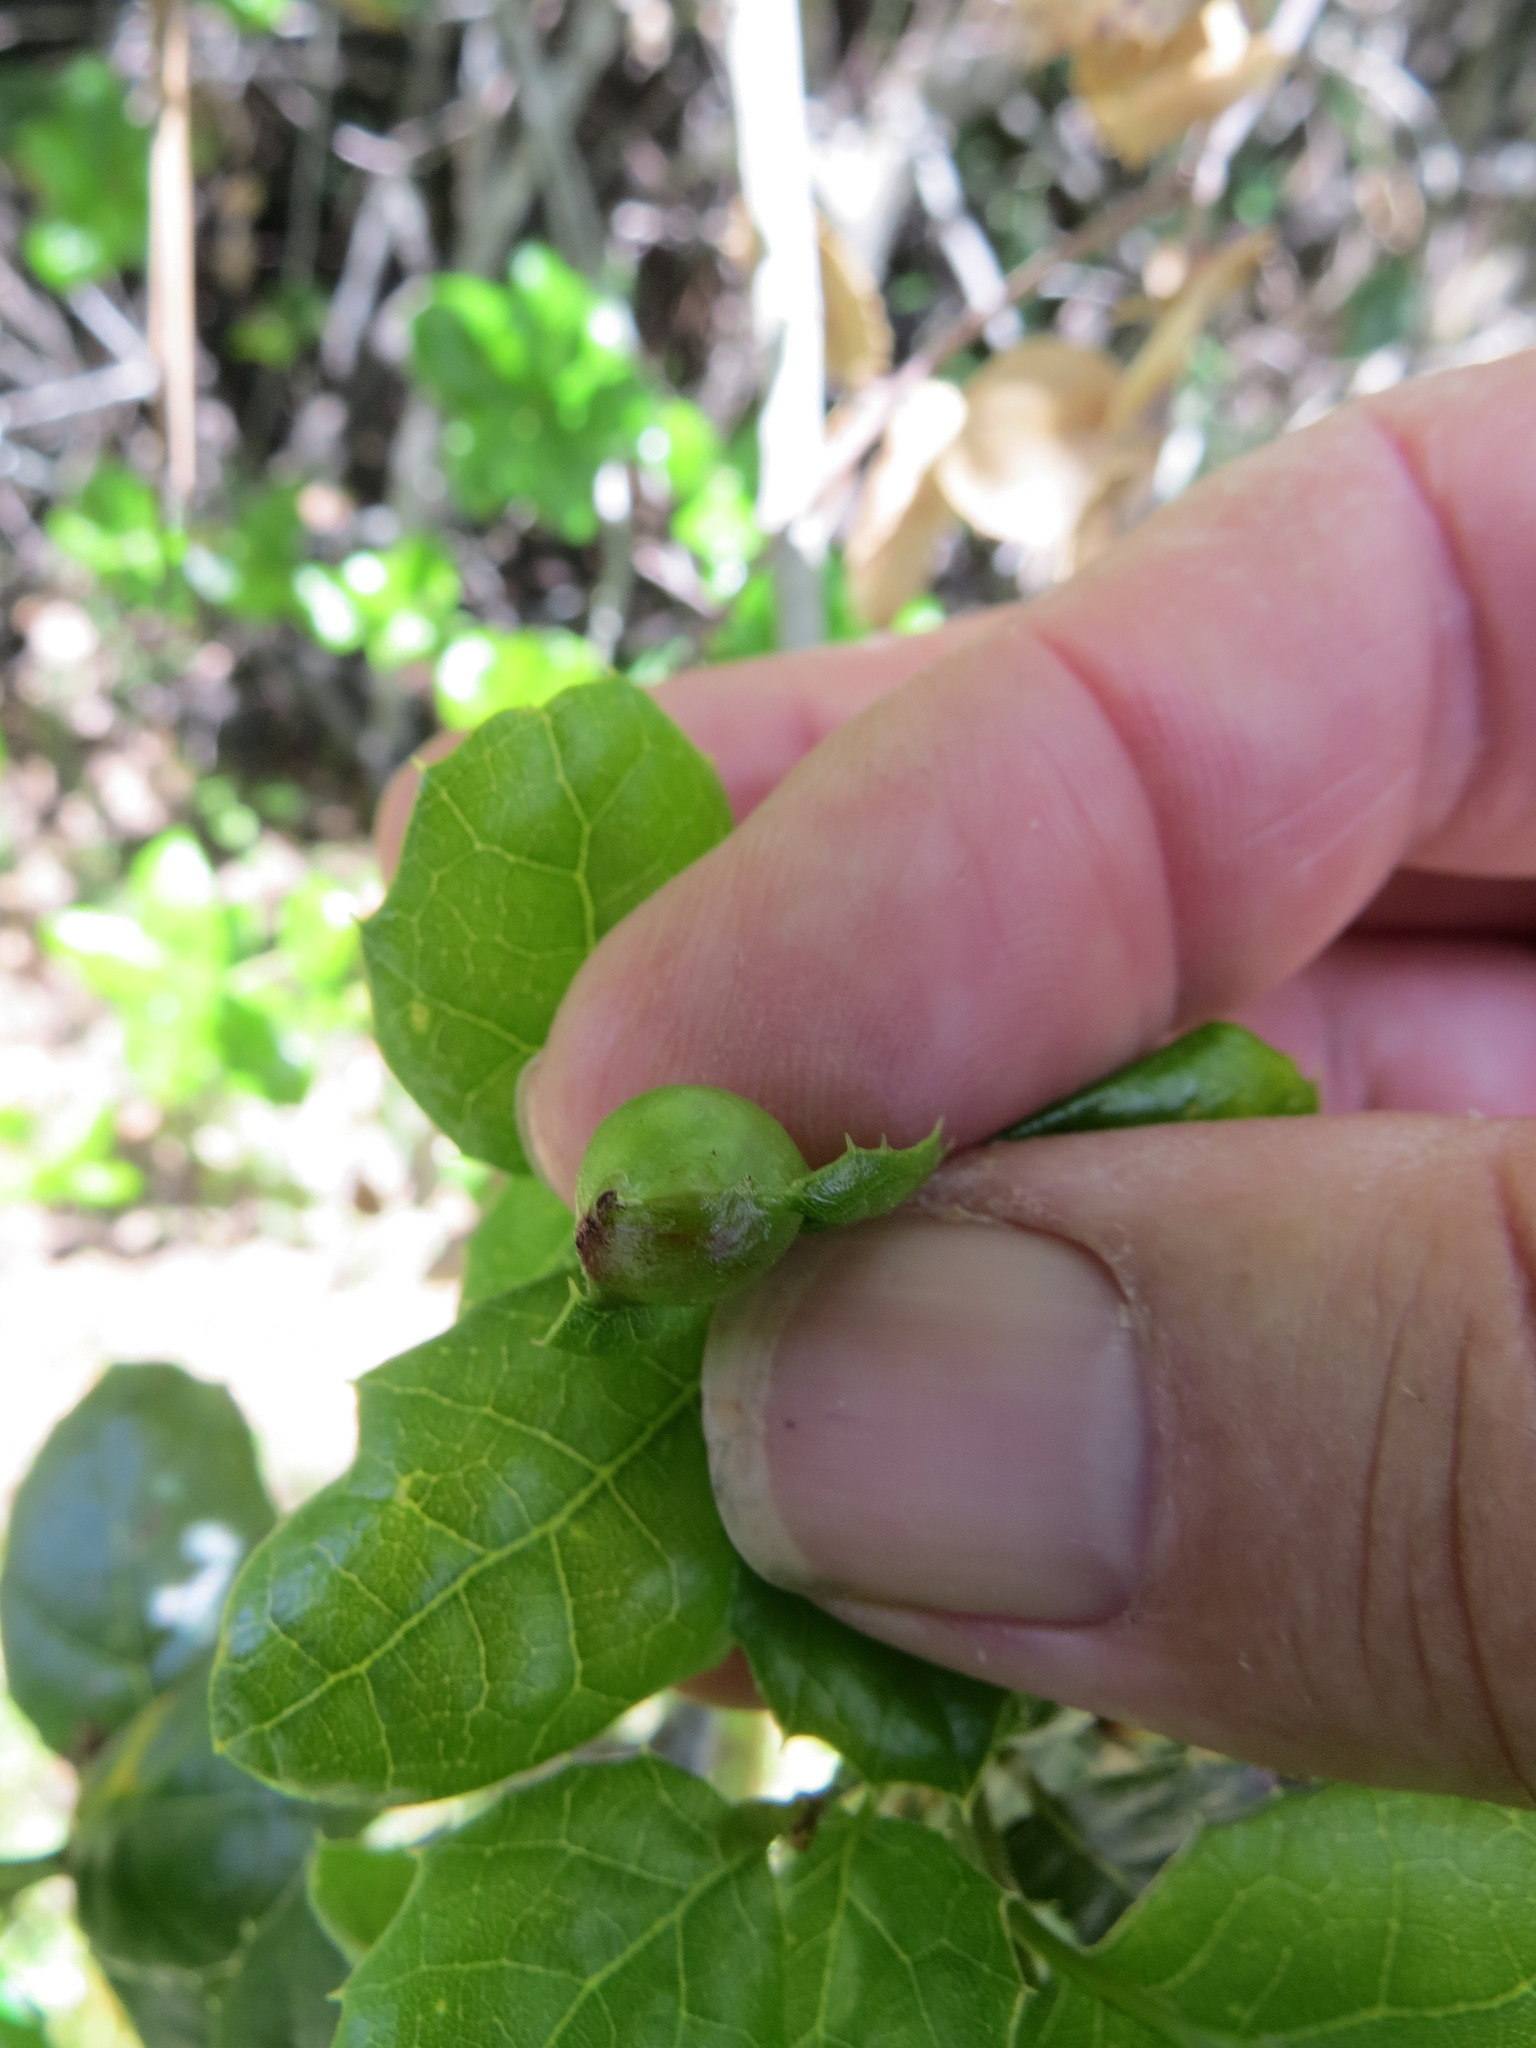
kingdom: Animalia
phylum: Arthropoda
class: Insecta
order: Hymenoptera
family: Cynipidae
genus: Callirhytis
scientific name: Callirhytis
